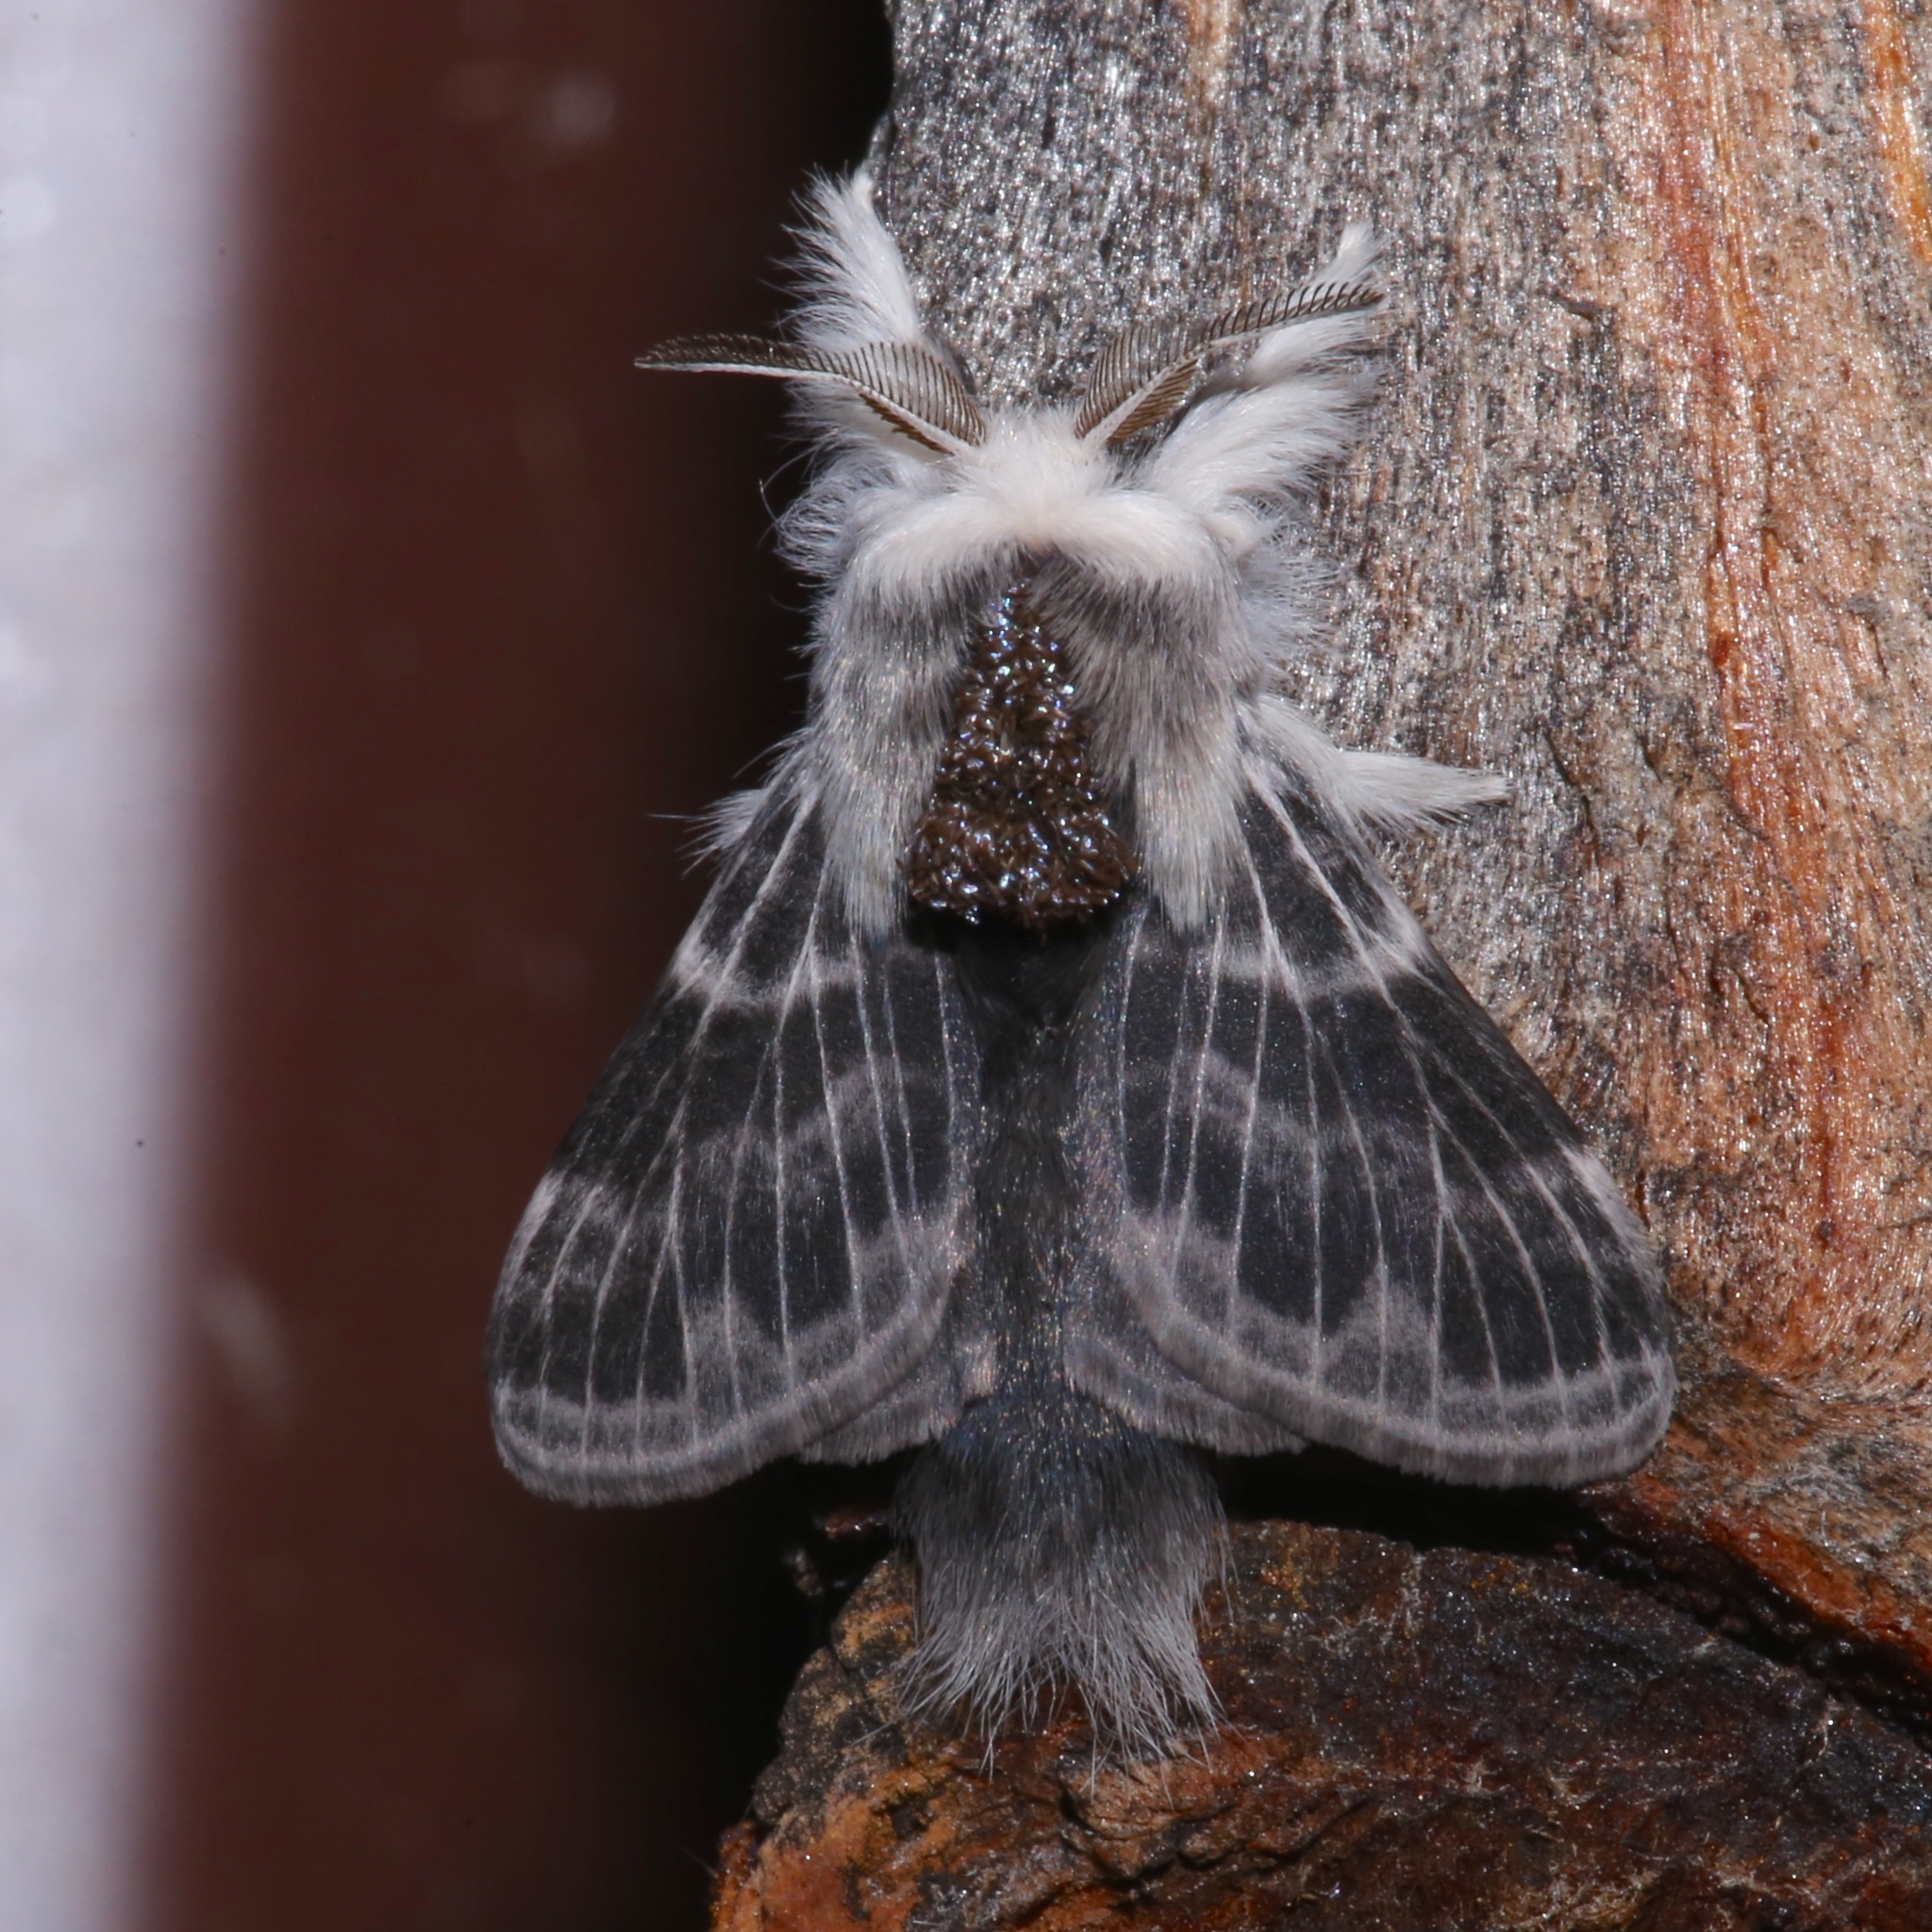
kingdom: Animalia
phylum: Arthropoda
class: Insecta
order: Lepidoptera
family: Lasiocampidae
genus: Tolype
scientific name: Tolype laricis
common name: Larch tolype moth
